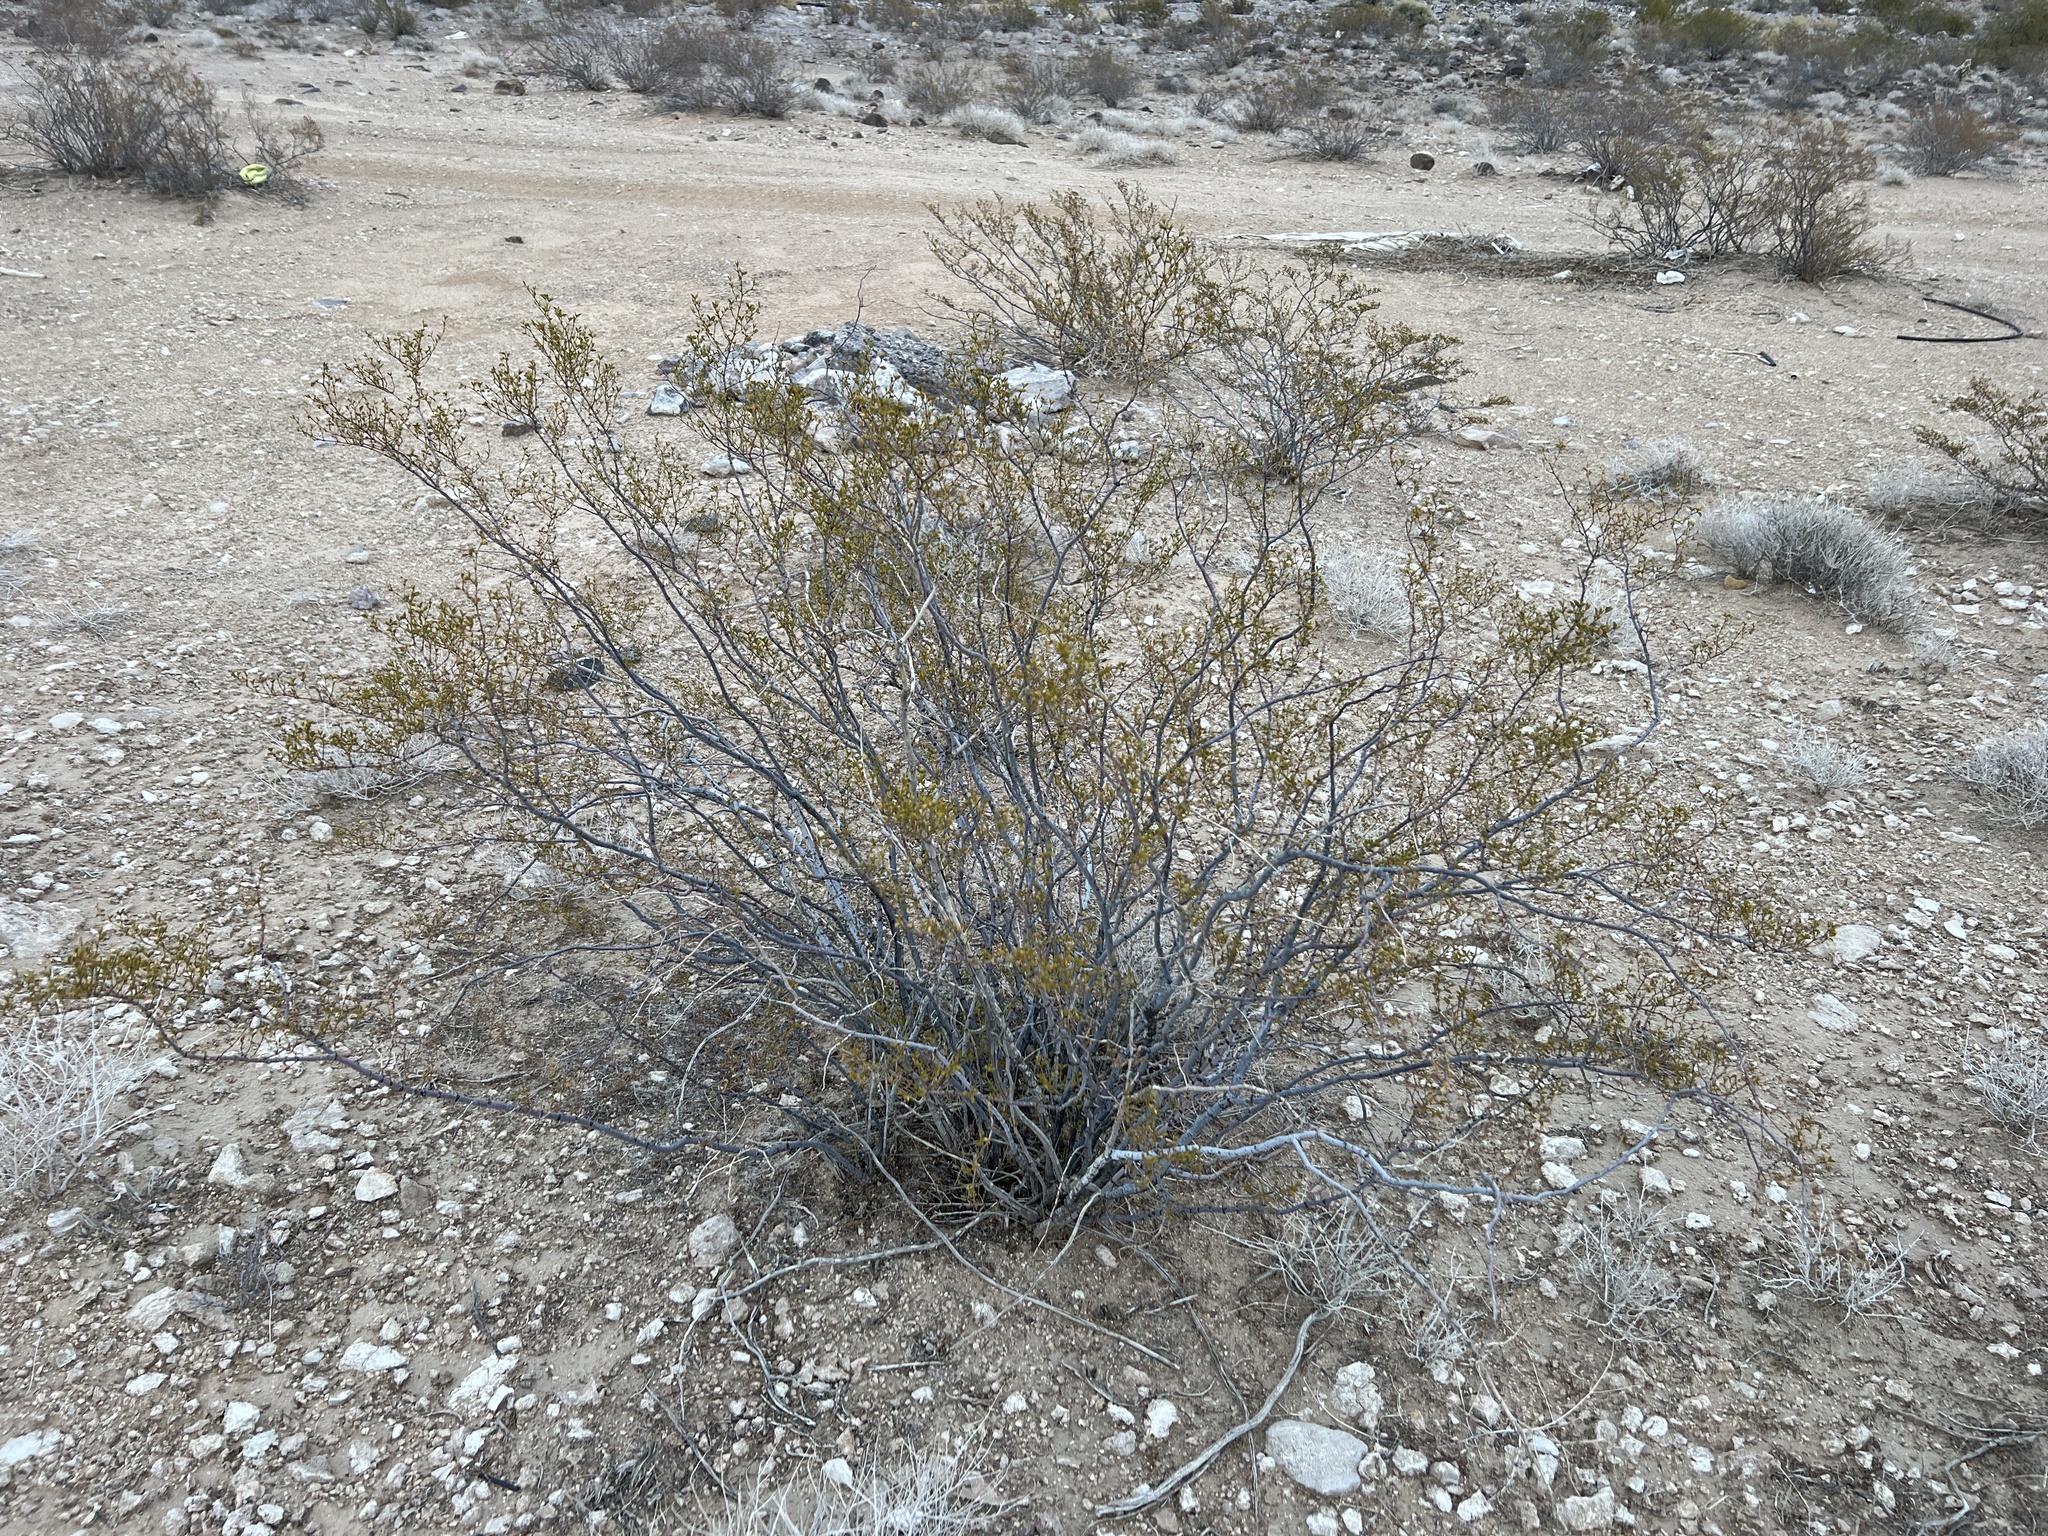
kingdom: Plantae
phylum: Tracheophyta
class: Magnoliopsida
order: Zygophyllales
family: Zygophyllaceae
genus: Larrea
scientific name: Larrea tridentata
